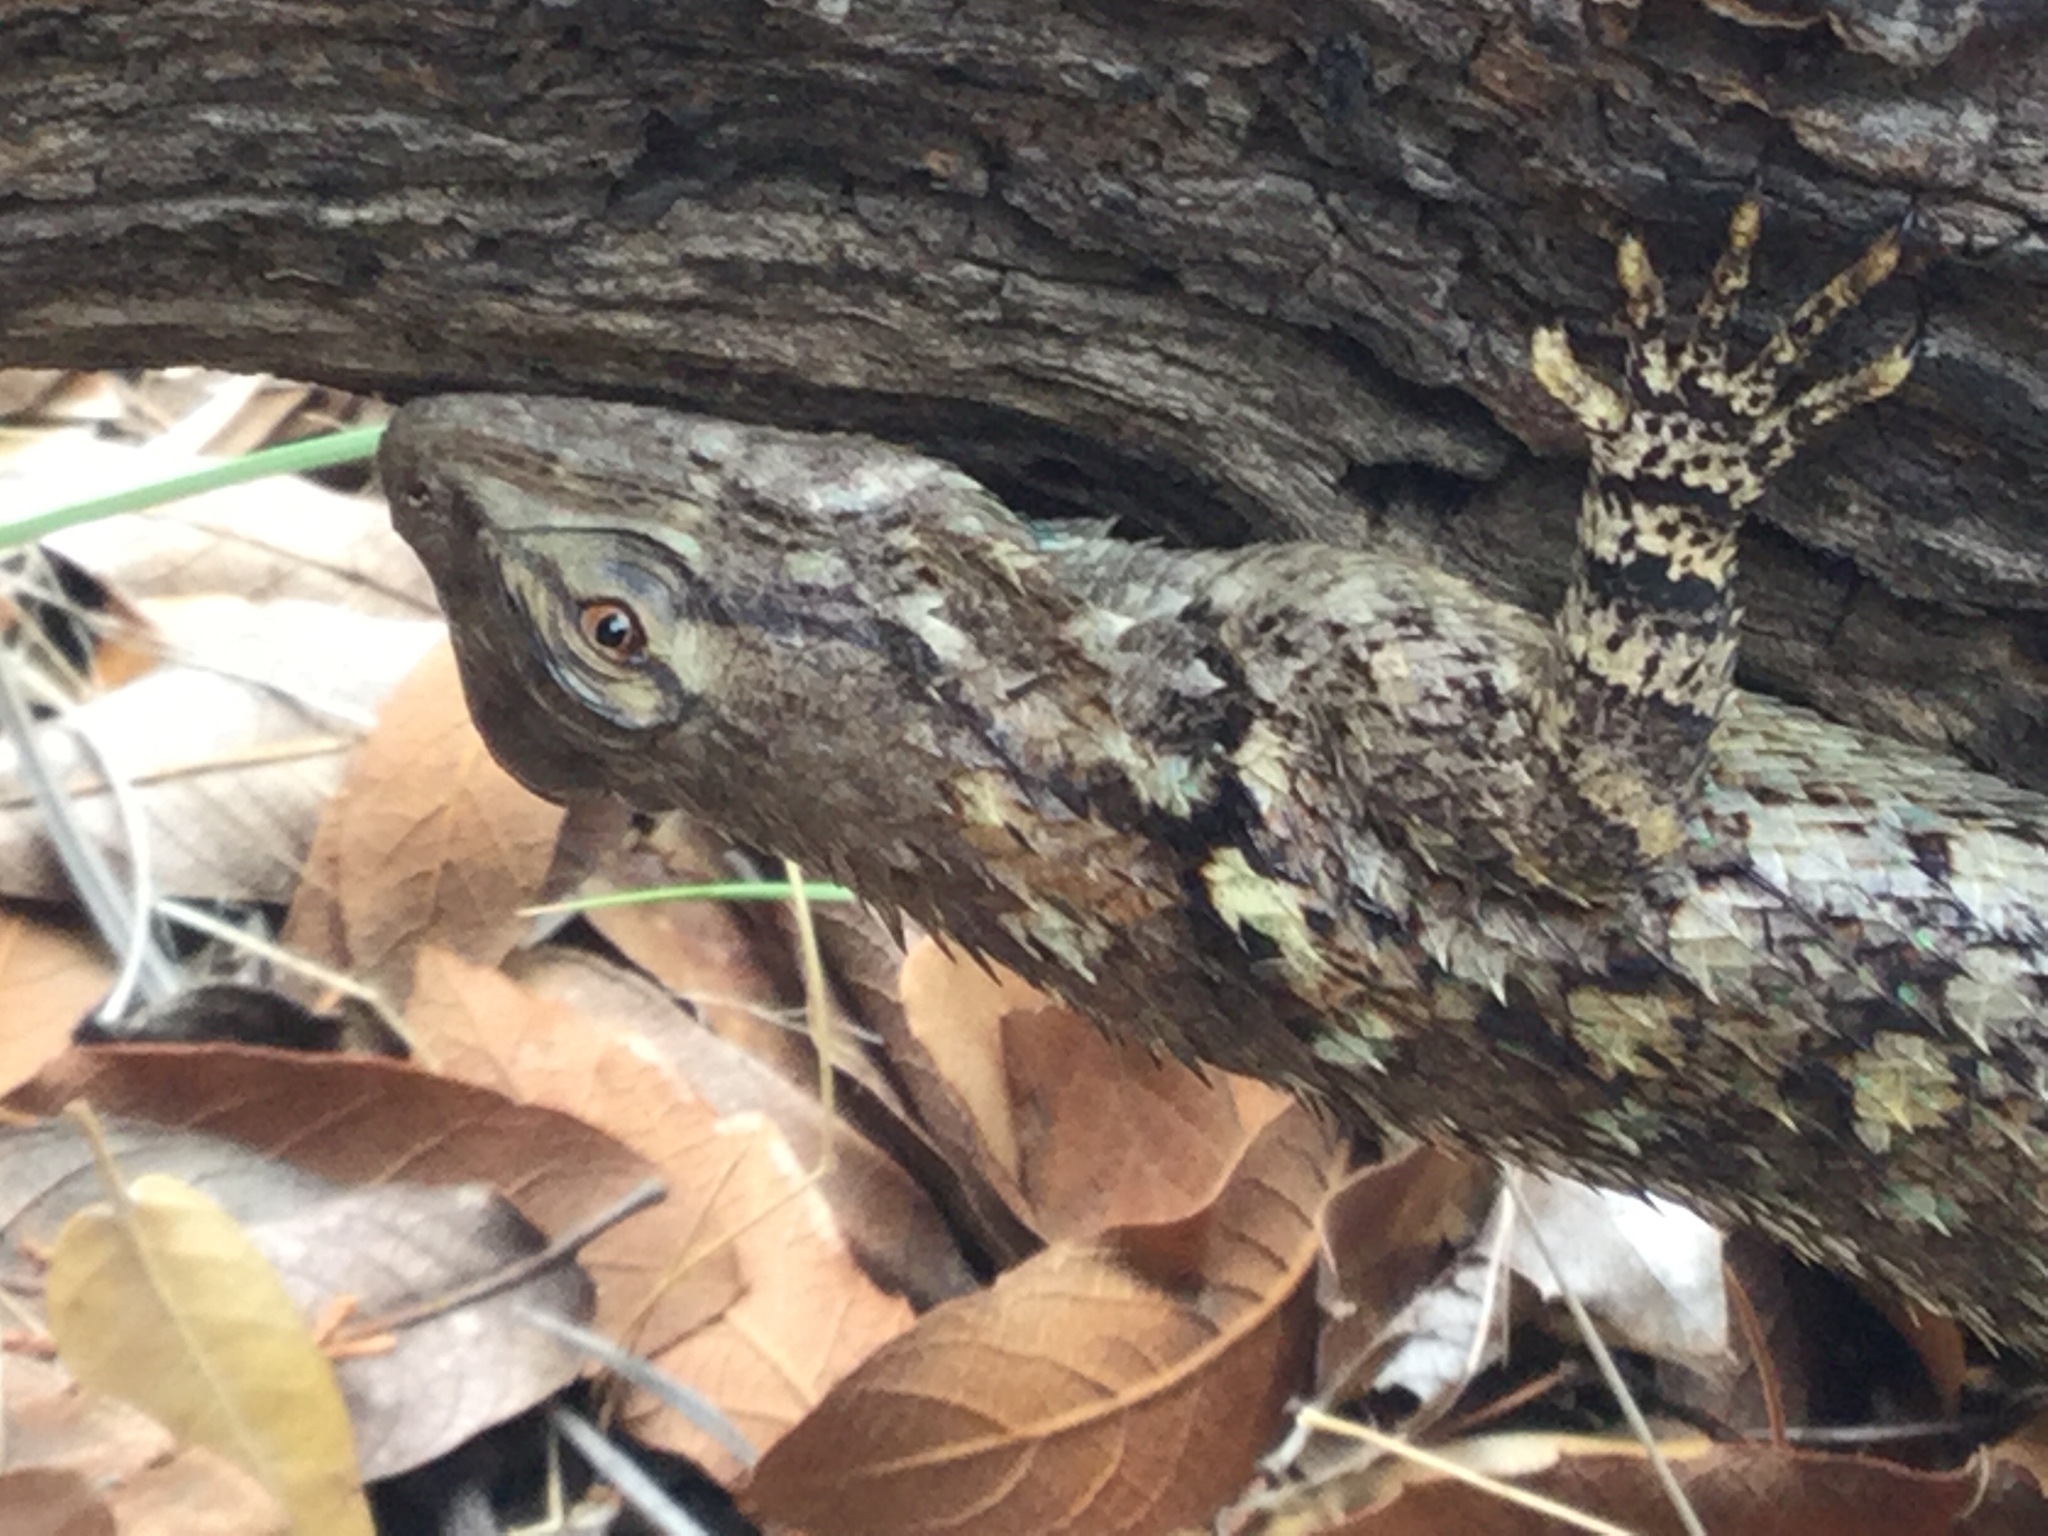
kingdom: Animalia
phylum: Chordata
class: Squamata
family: Phrynosomatidae
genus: Sceloporus
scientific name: Sceloporus clarkii
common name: Clark's spiny lizard
